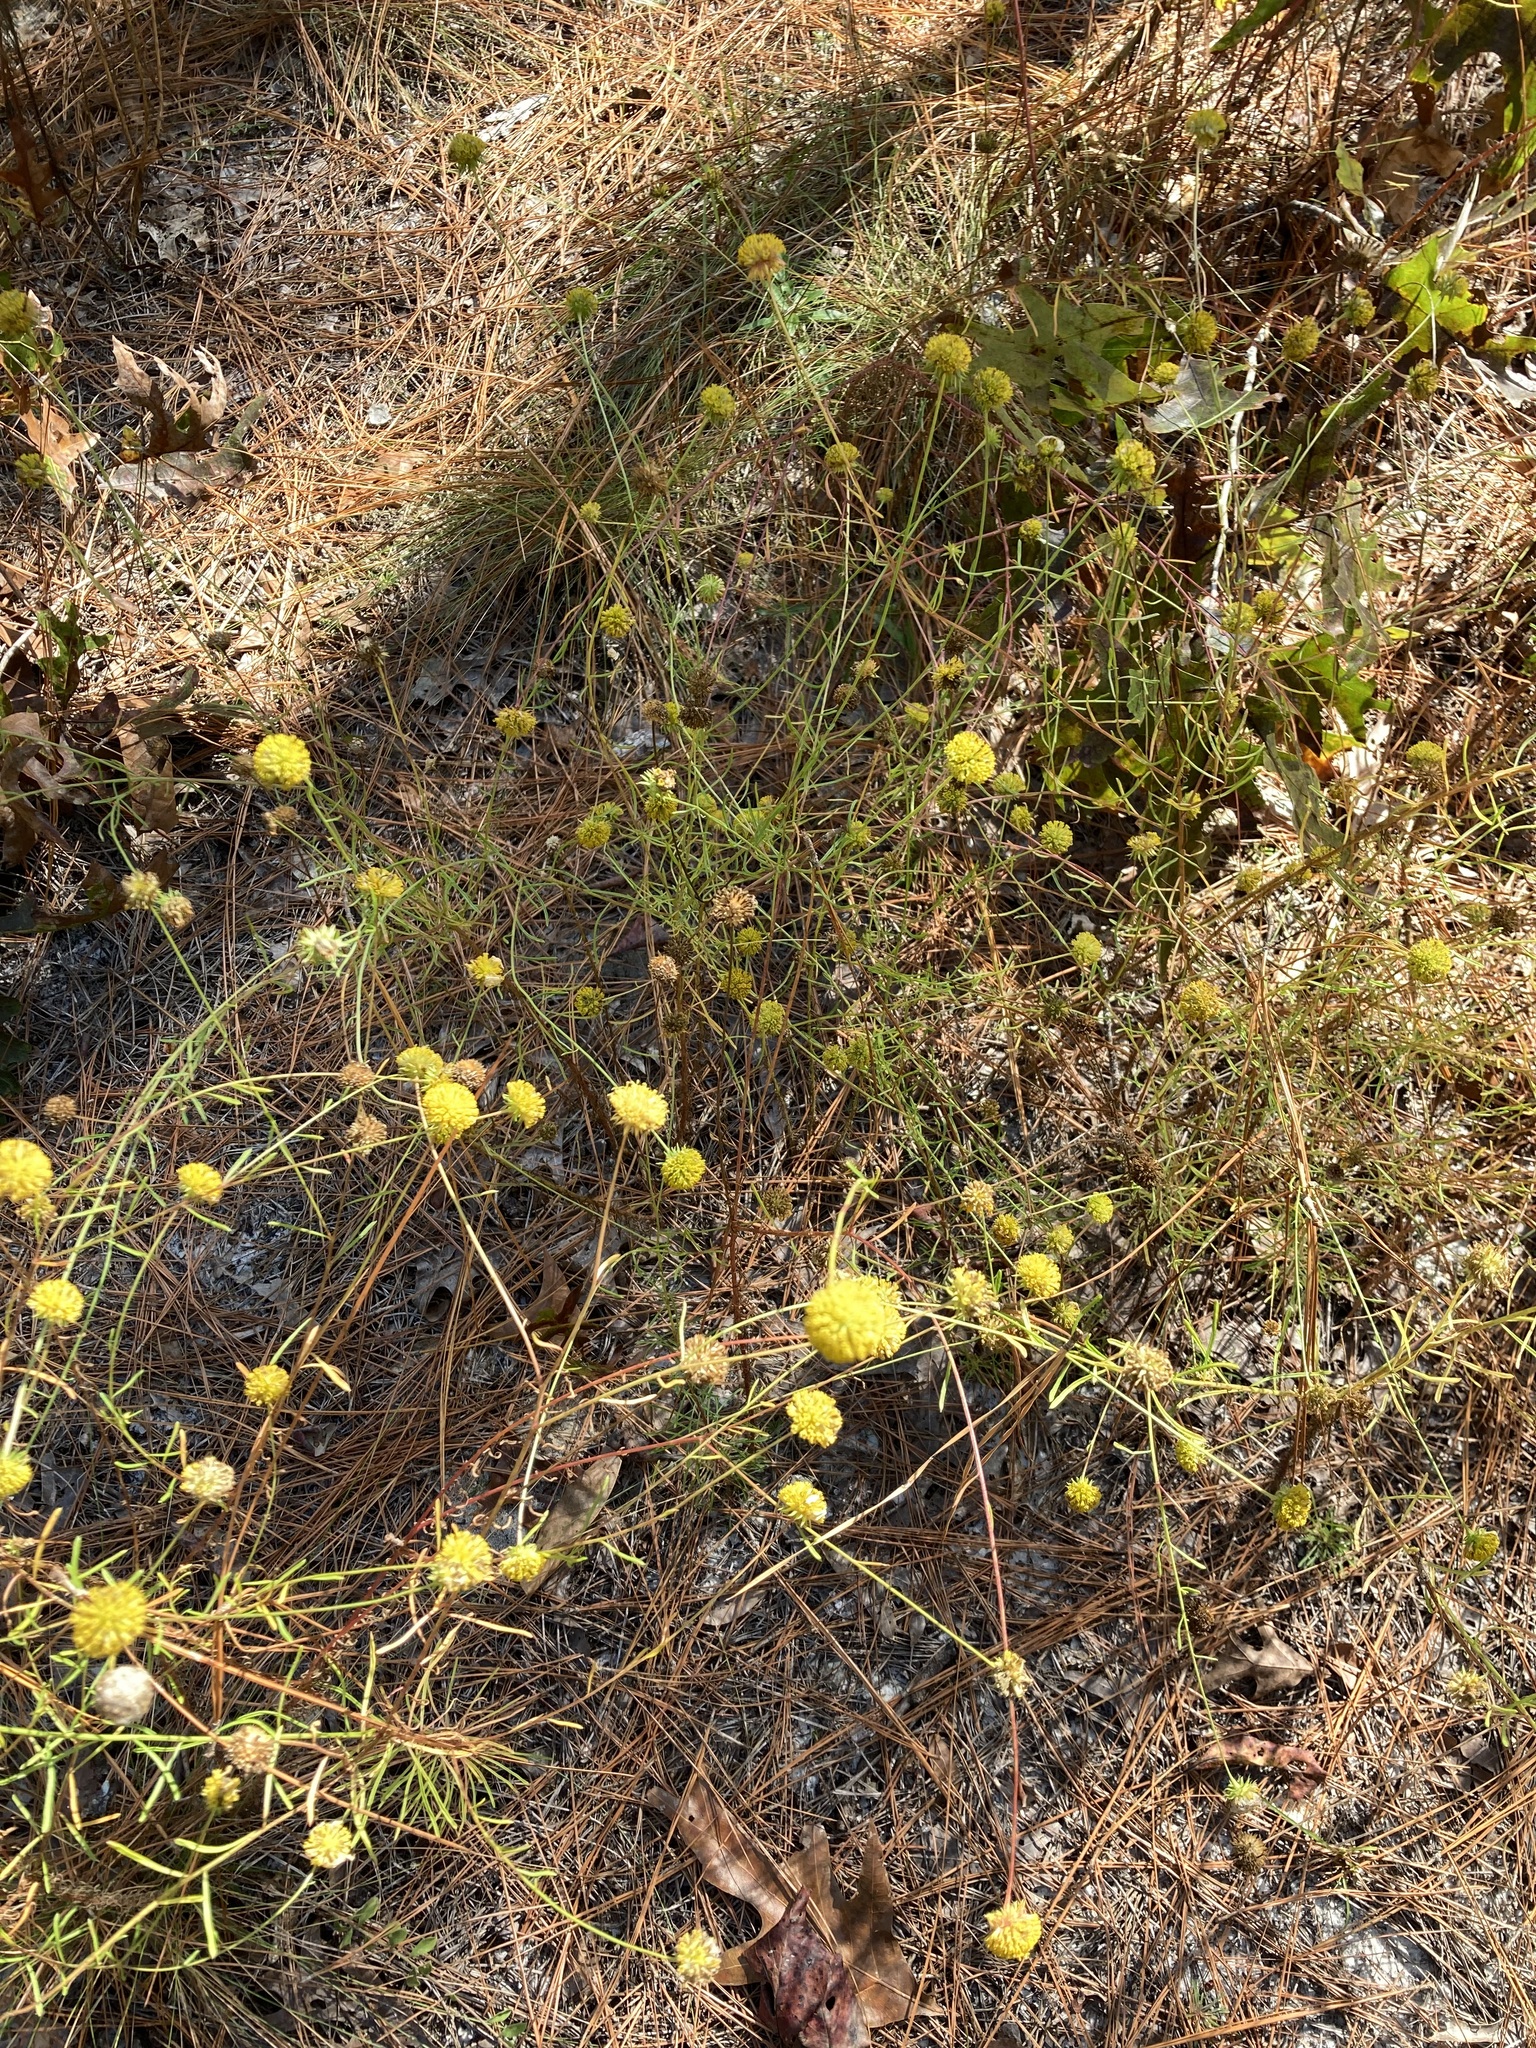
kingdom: Plantae
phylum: Tracheophyta
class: Magnoliopsida
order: Asterales
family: Asteraceae
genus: Balduina
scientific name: Balduina angustifolia
